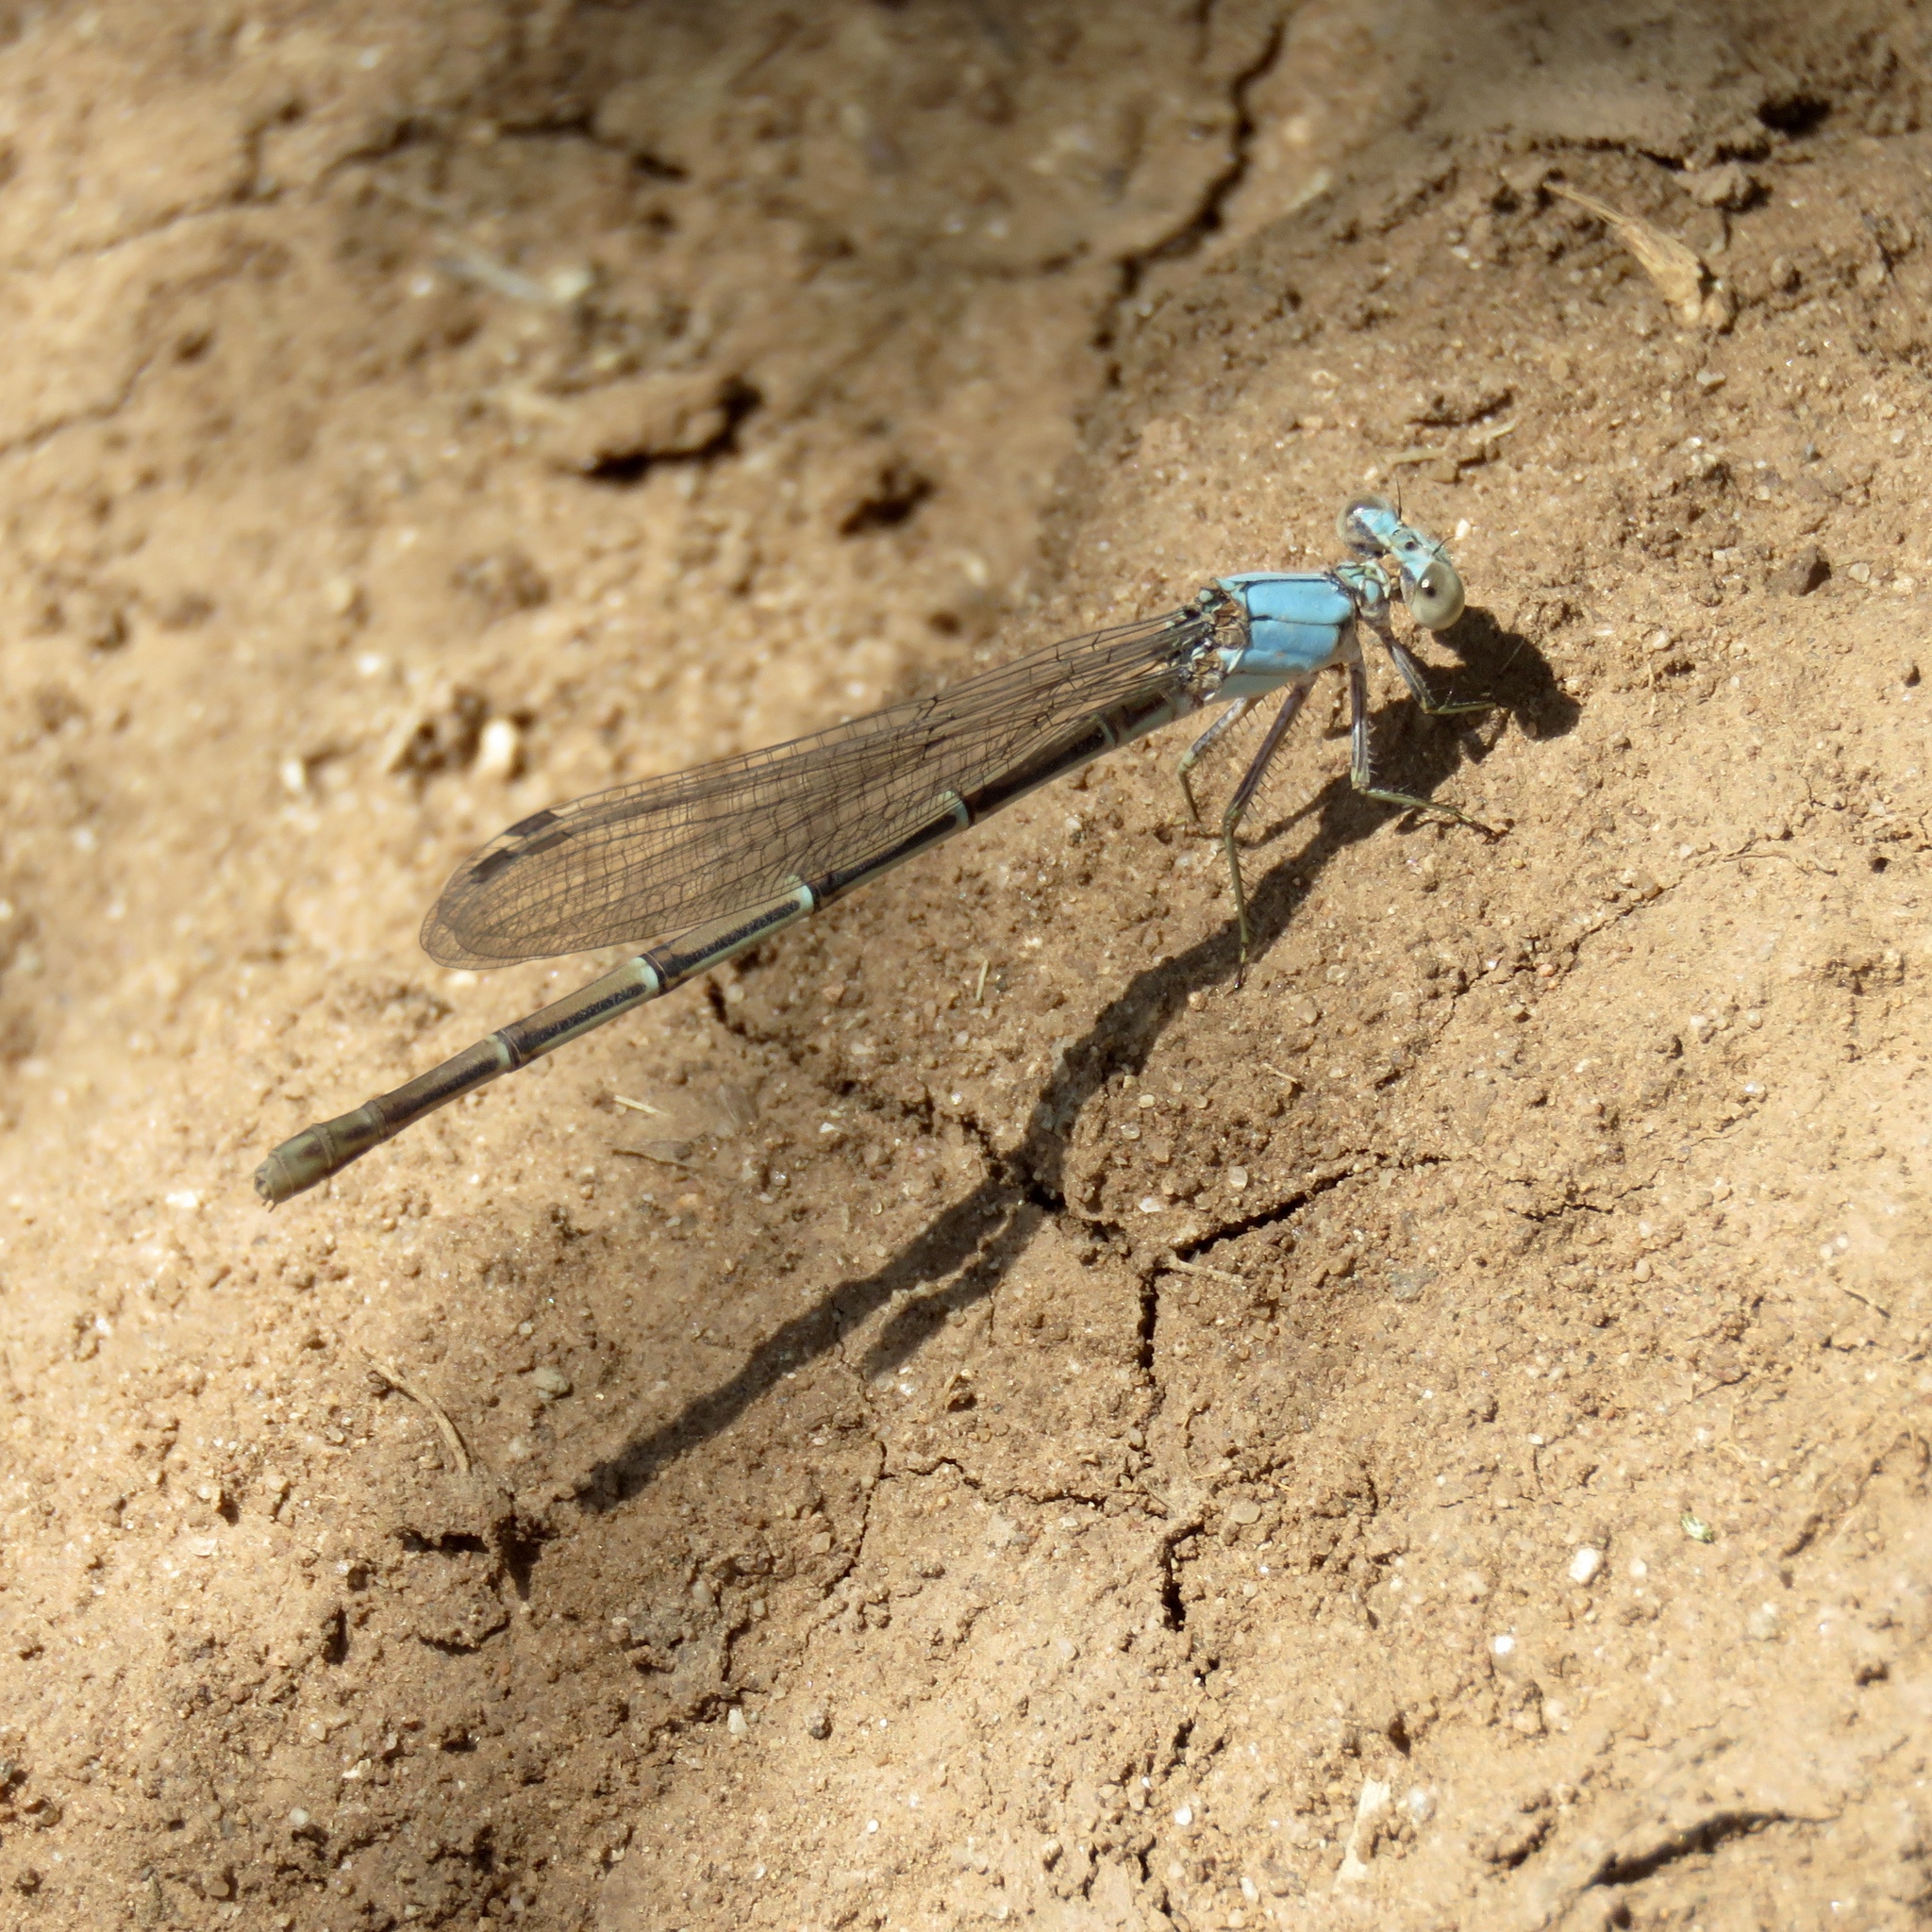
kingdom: Animalia
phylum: Arthropoda
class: Insecta
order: Odonata
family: Coenagrionidae
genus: Argia
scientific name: Argia
